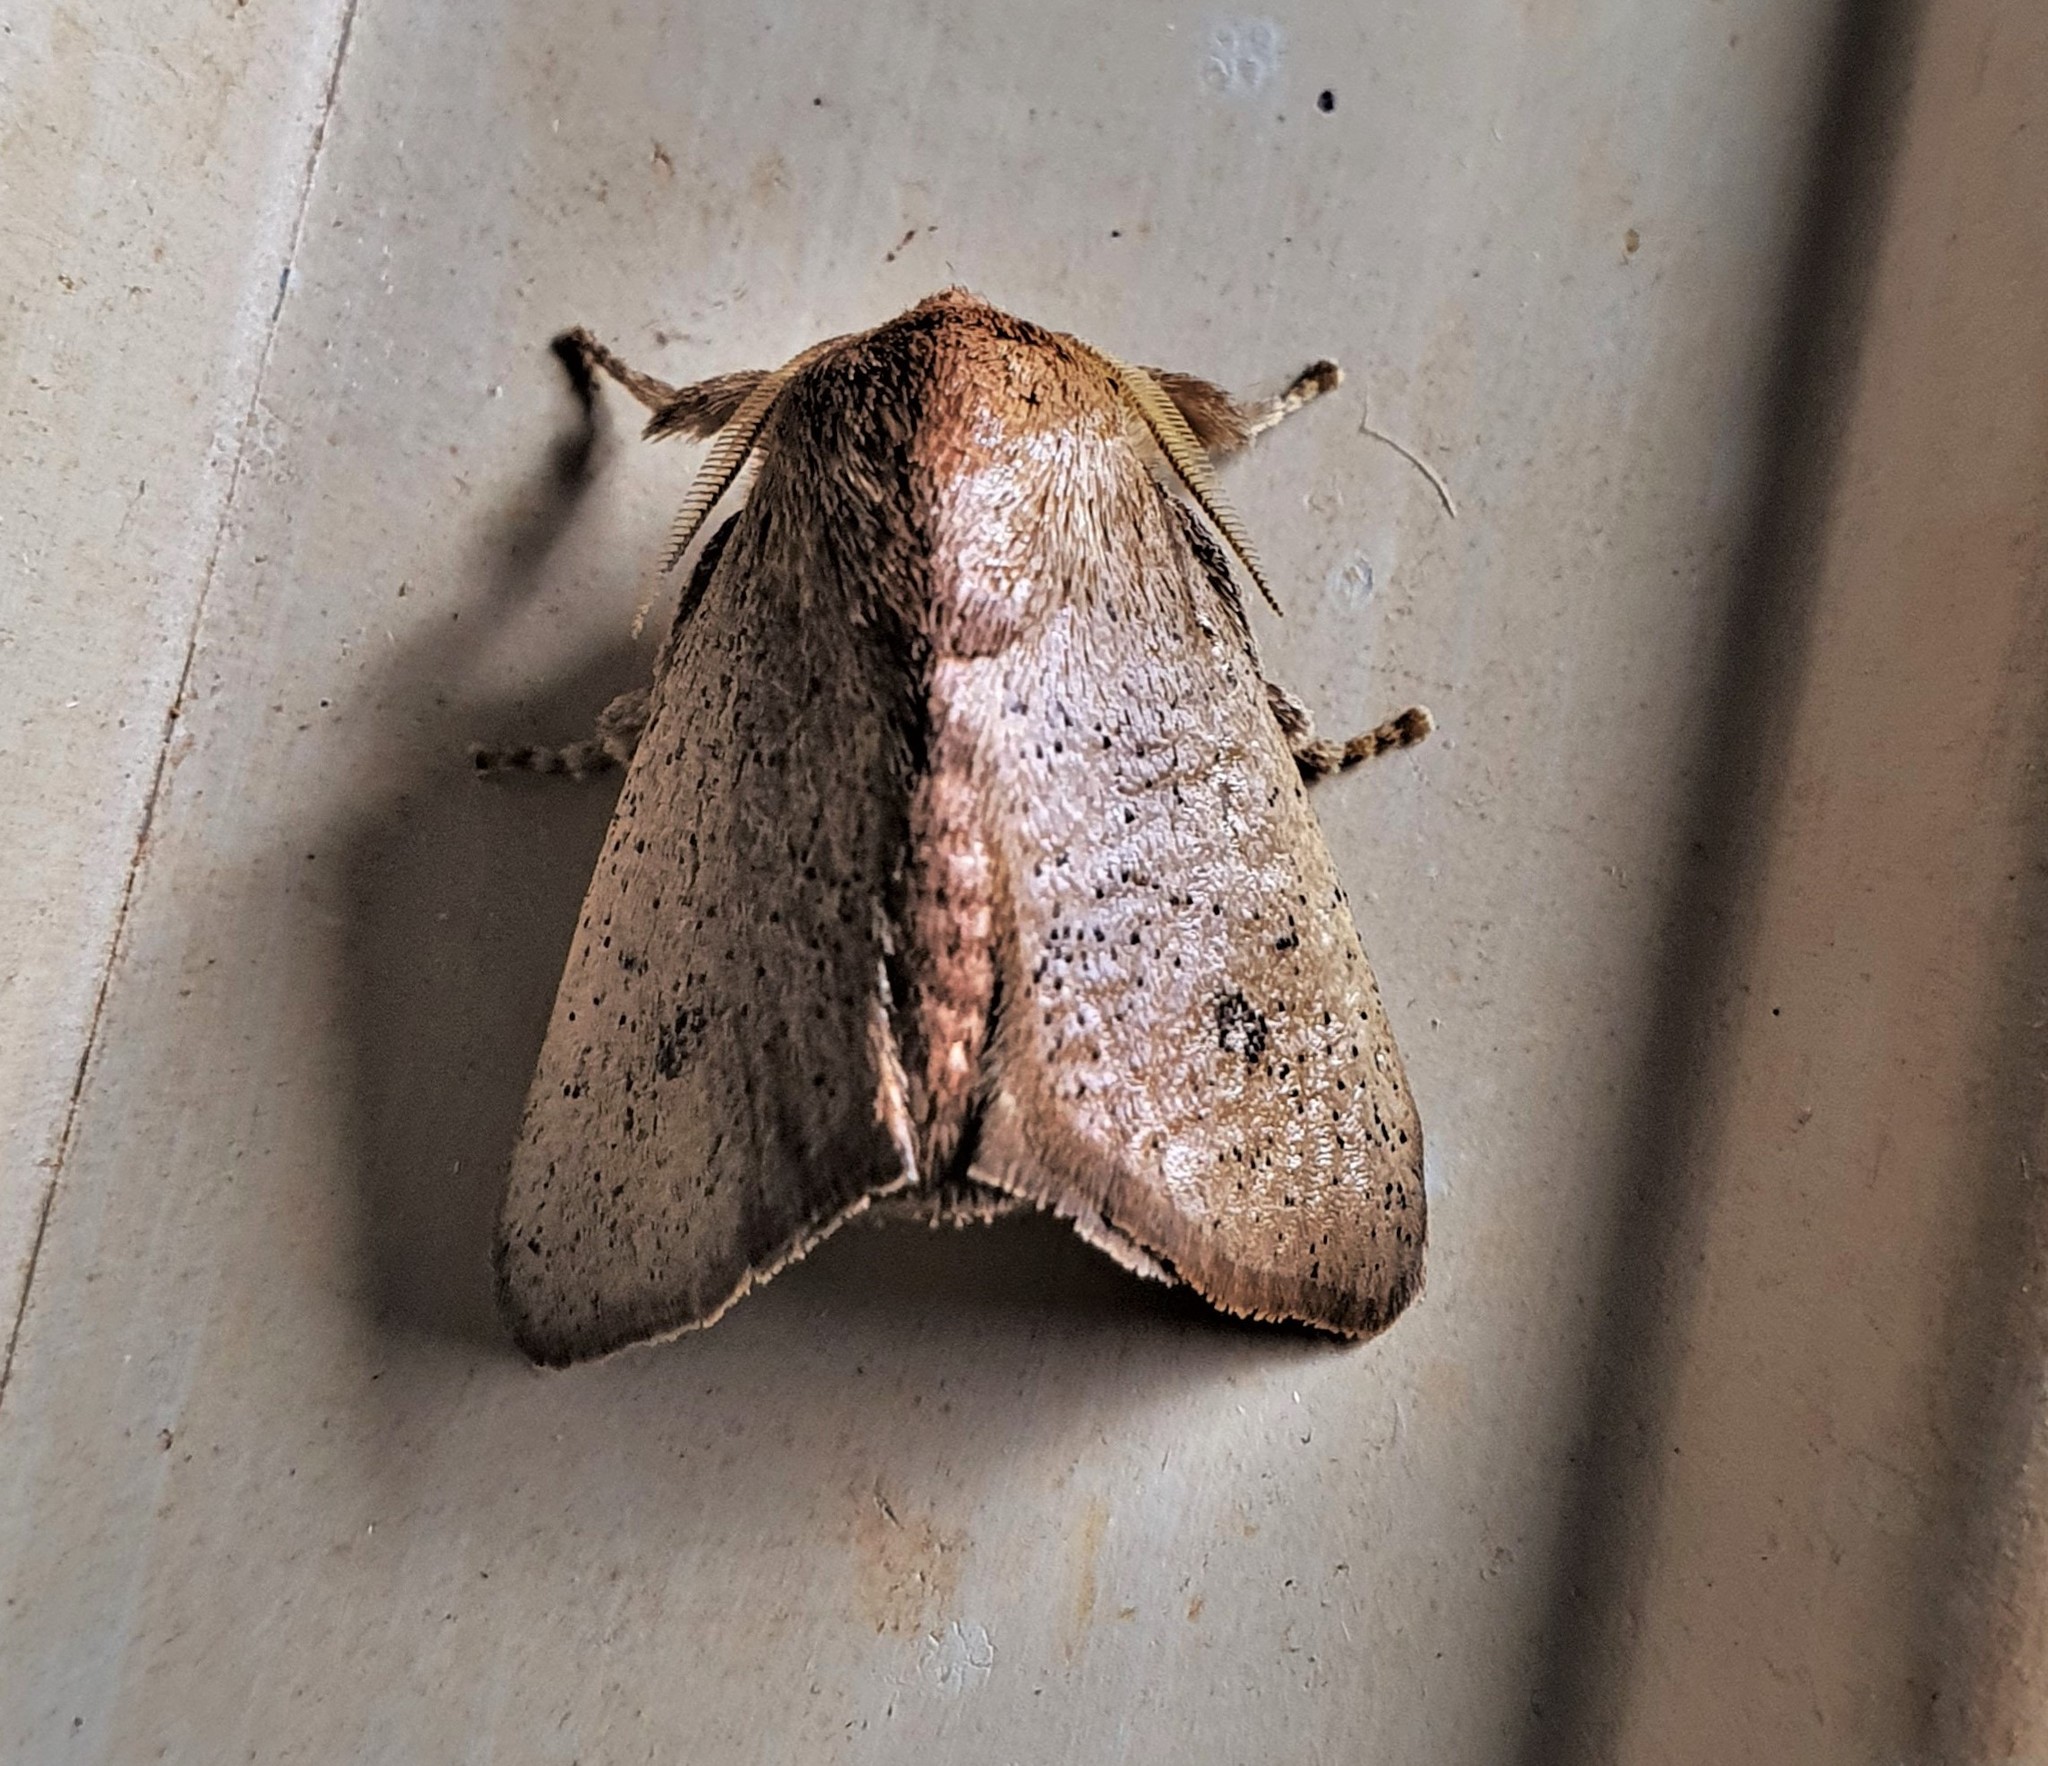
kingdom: Animalia
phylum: Arthropoda
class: Insecta
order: Lepidoptera
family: Limacodidae
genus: Natada
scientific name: Natada lucens
